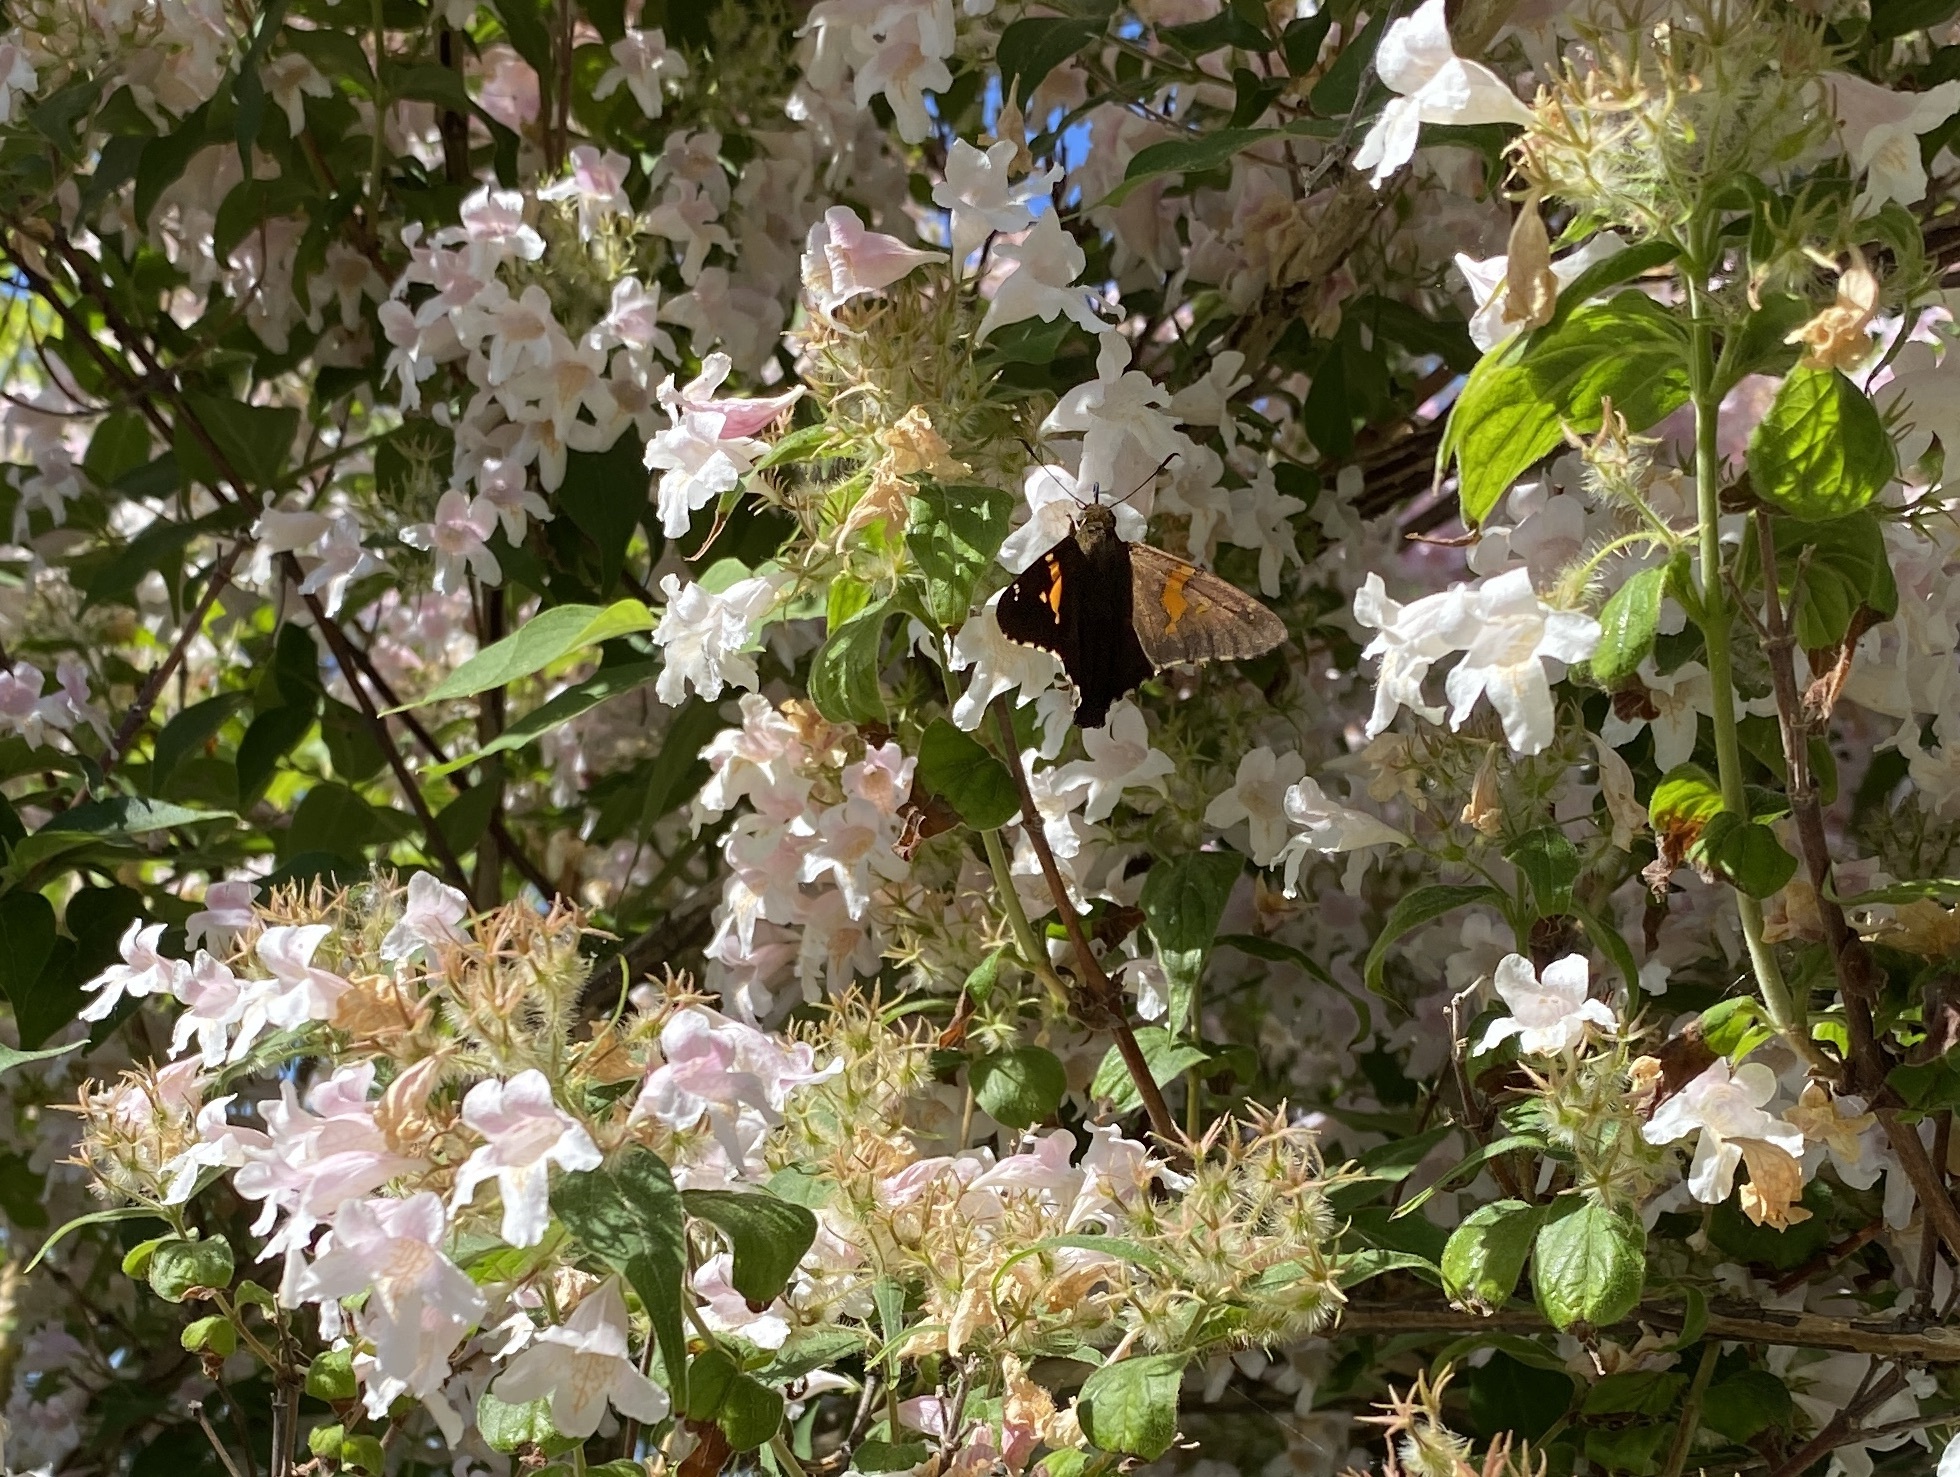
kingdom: Animalia
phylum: Arthropoda
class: Insecta
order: Lepidoptera
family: Hesperiidae
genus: Epargyreus
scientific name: Epargyreus clarus
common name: Silver-spotted skipper
